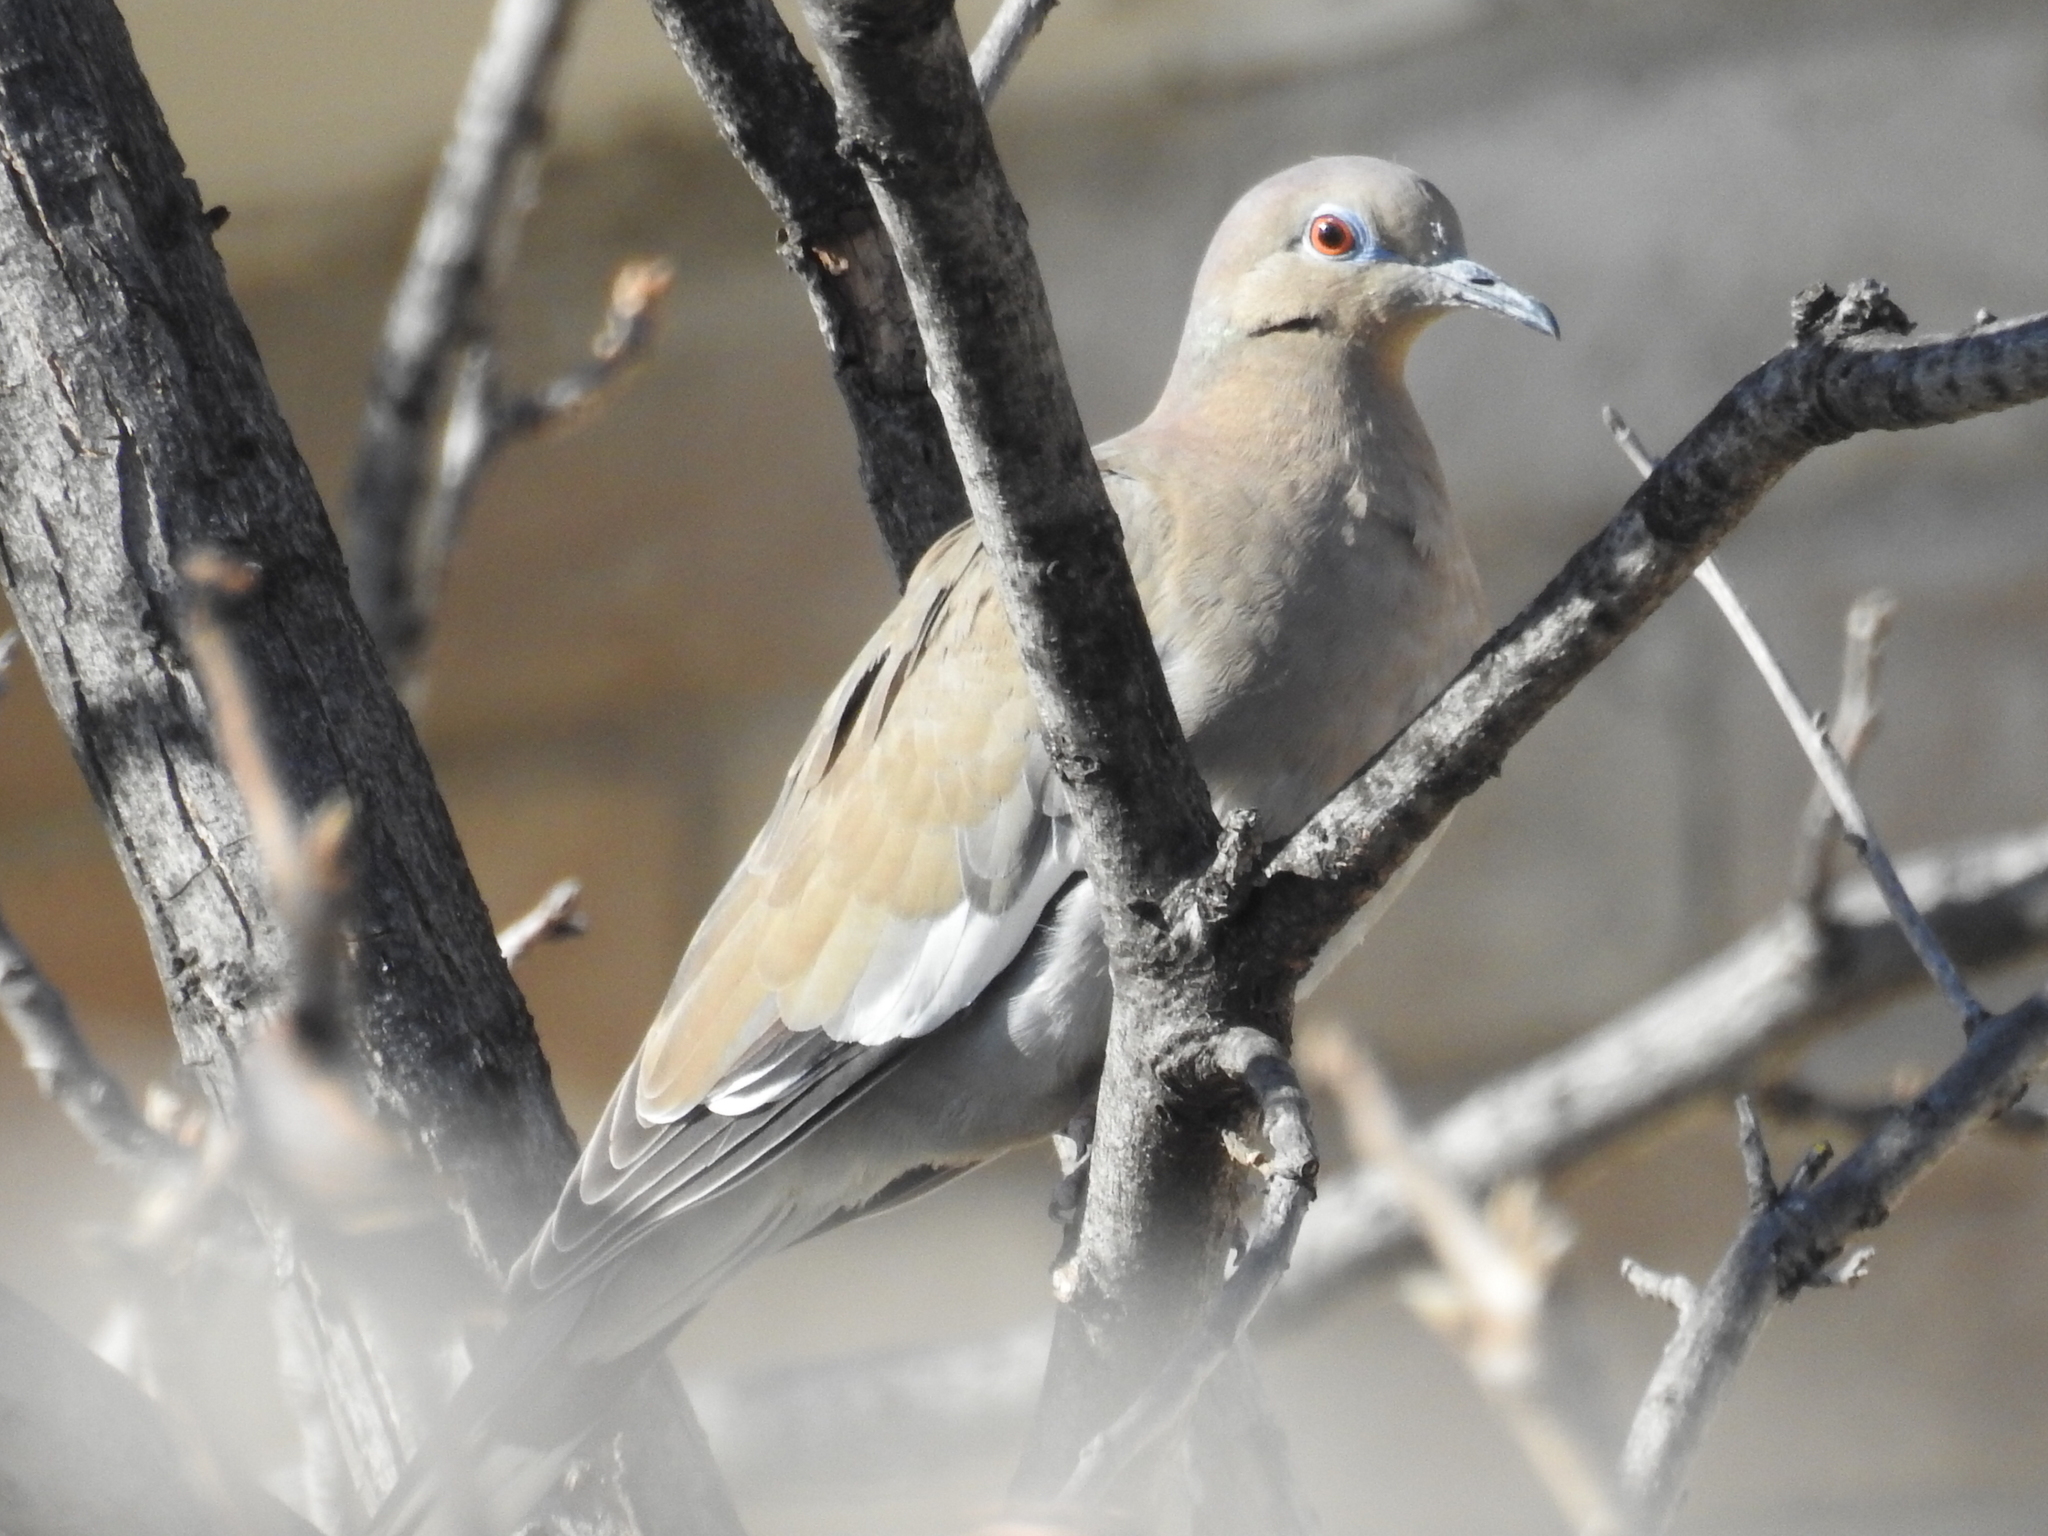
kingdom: Animalia
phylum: Chordata
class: Aves
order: Columbiformes
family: Columbidae
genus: Zenaida
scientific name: Zenaida asiatica
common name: White-winged dove
